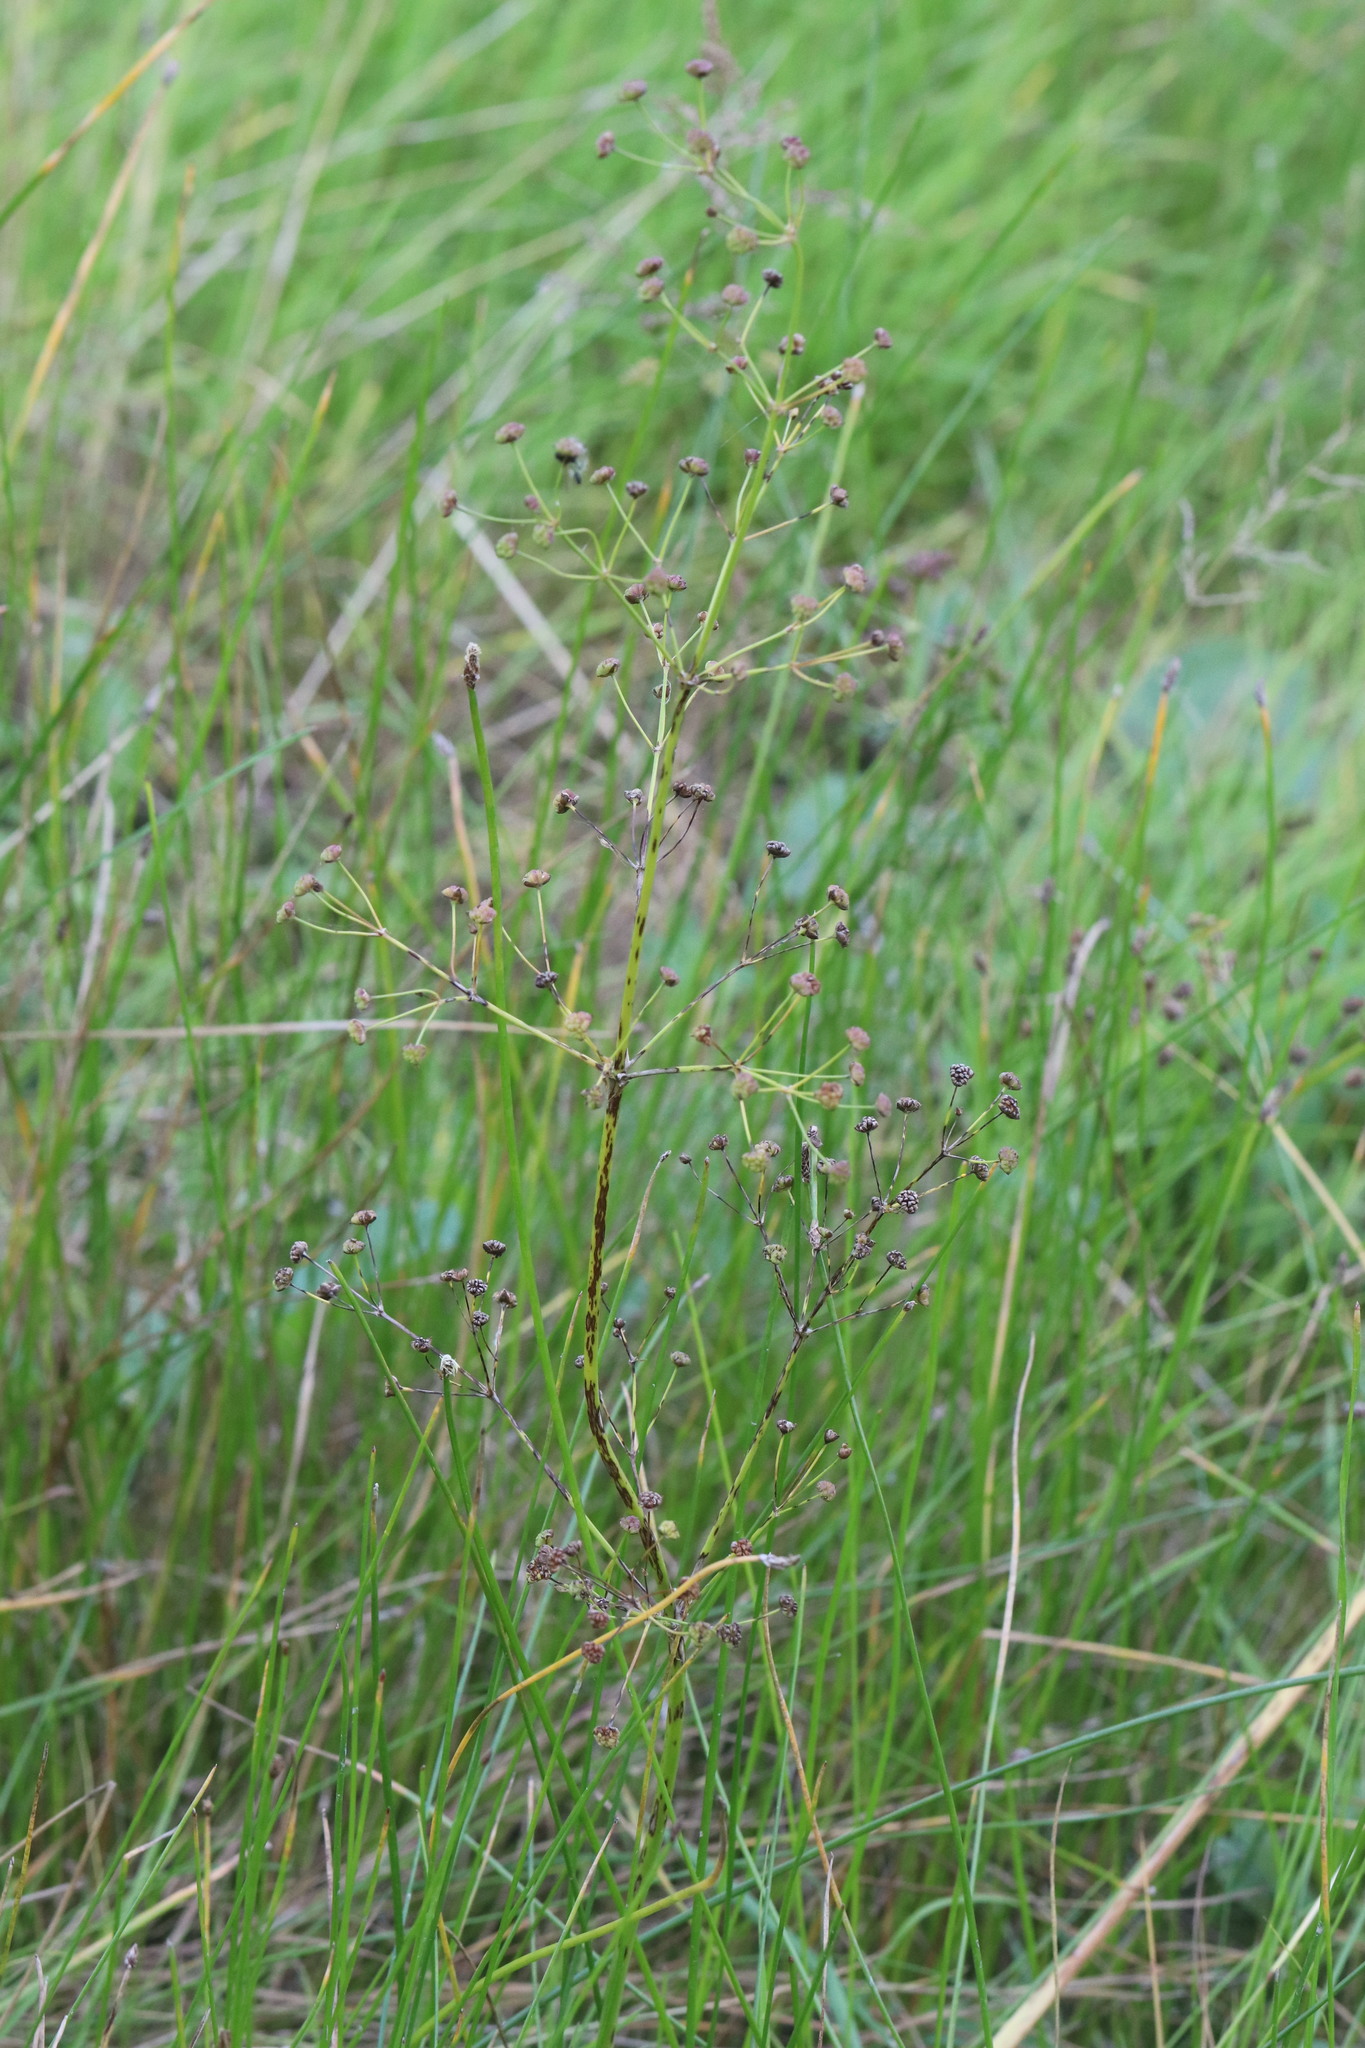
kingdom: Plantae
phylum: Tracheophyta
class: Liliopsida
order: Alismatales
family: Alismataceae
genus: Alisma
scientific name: Alisma plantago-aquatica
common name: Water-plantain
